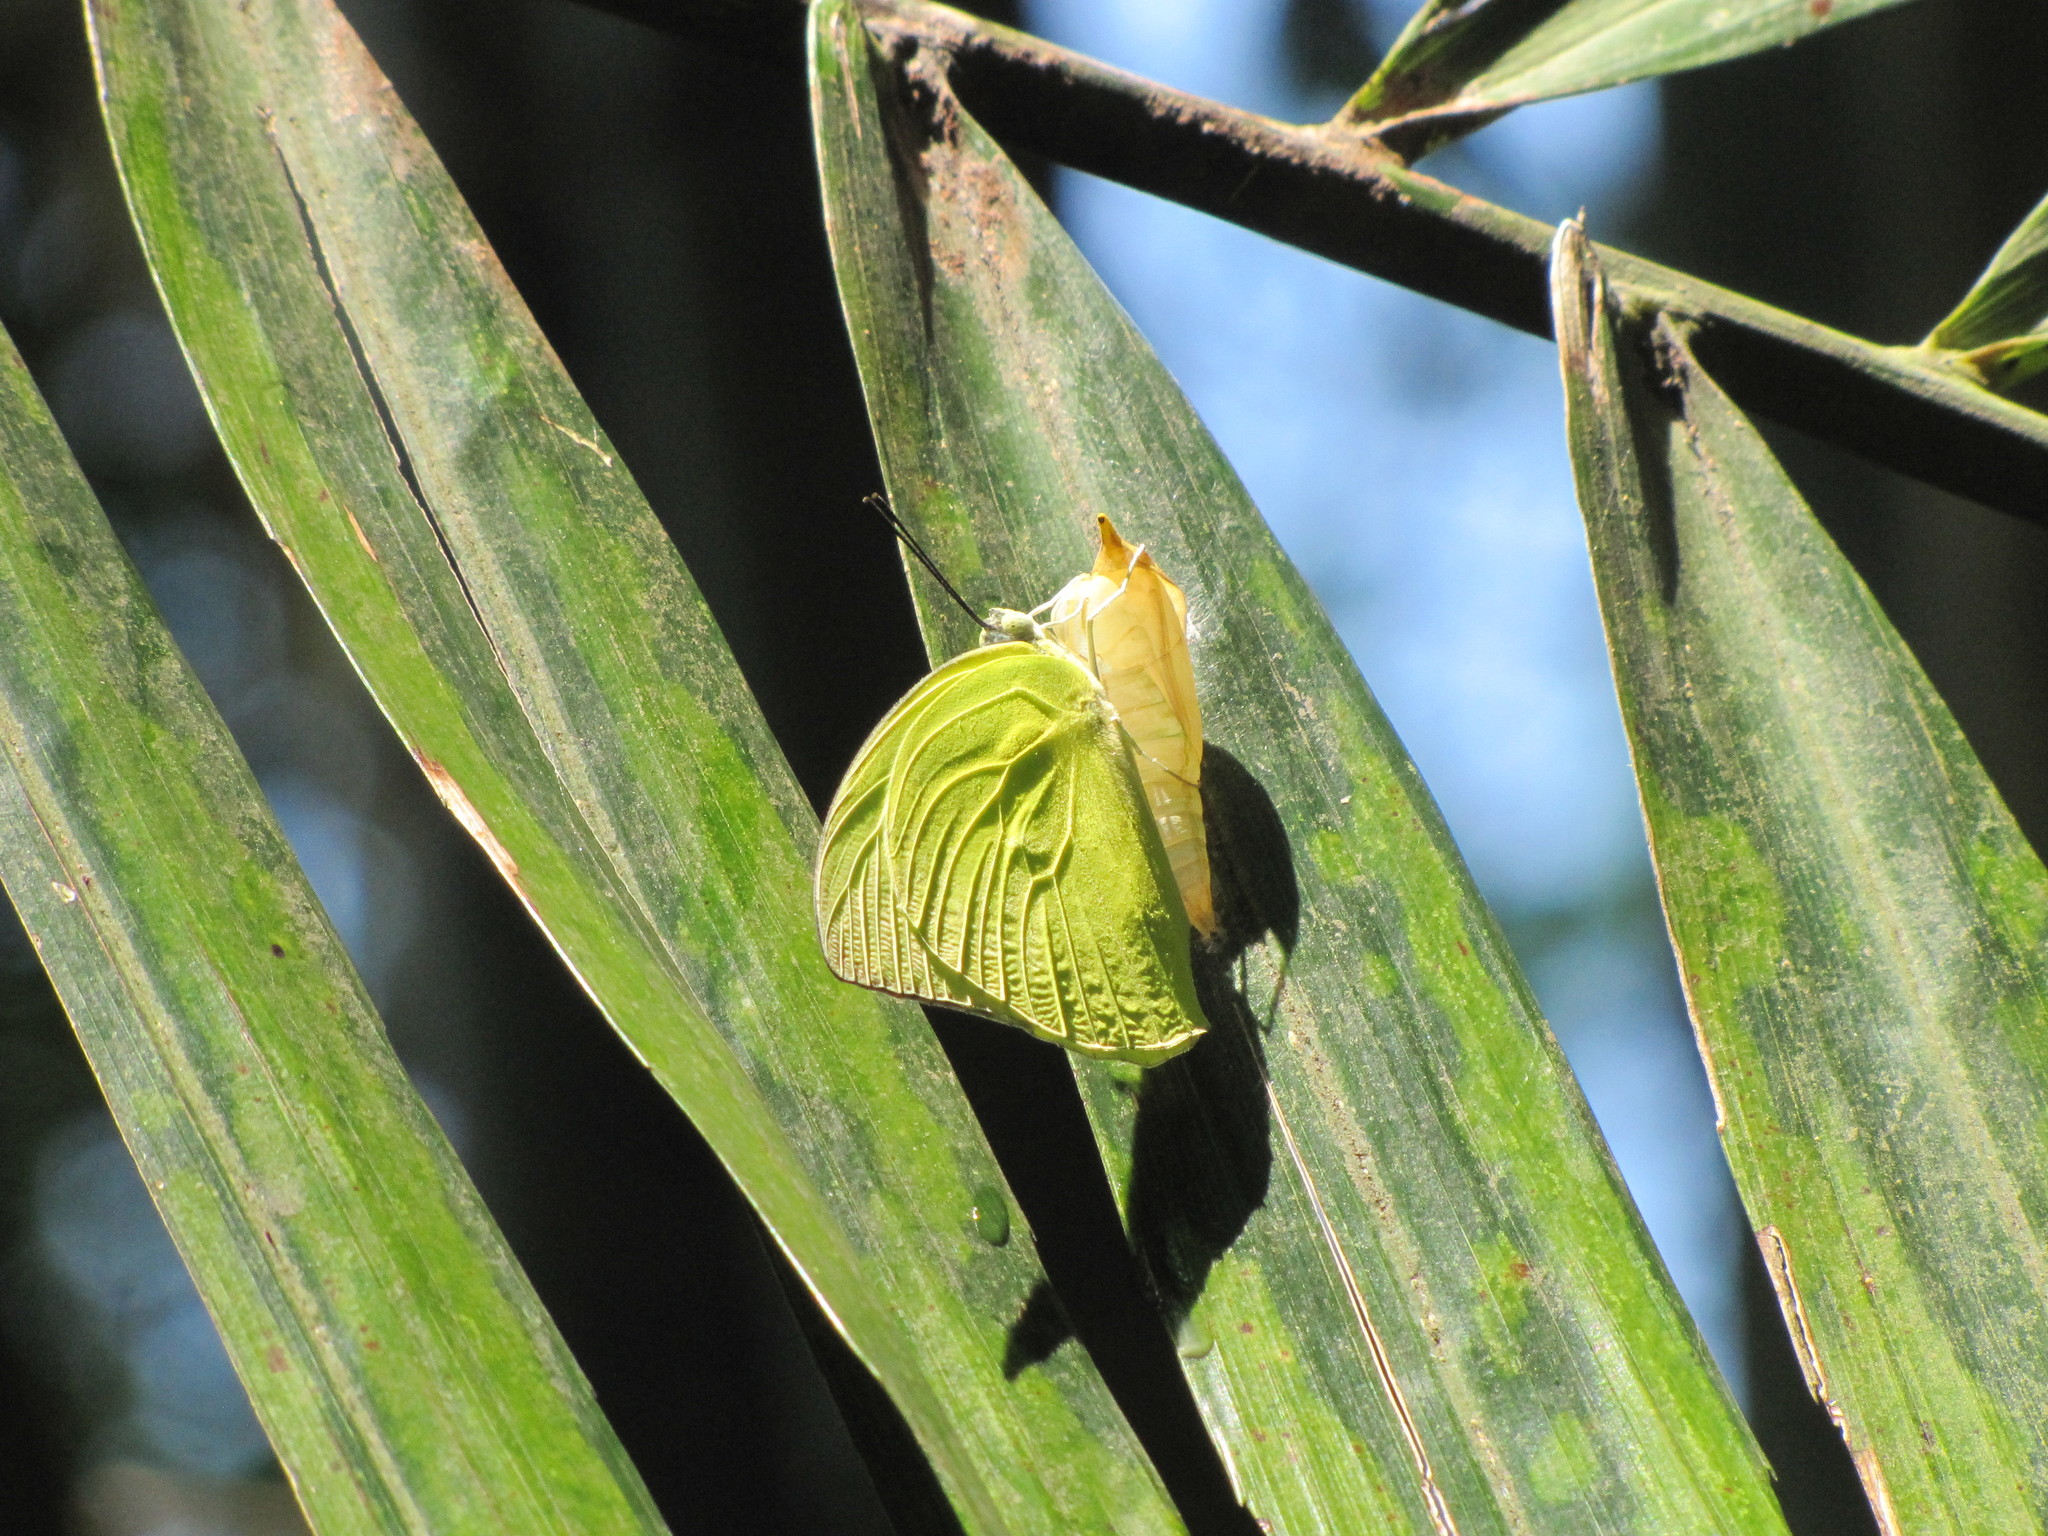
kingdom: Animalia
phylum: Arthropoda
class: Insecta
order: Lepidoptera
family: Pieridae
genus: Catopsilia
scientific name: Catopsilia pomona
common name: Common emigrant
